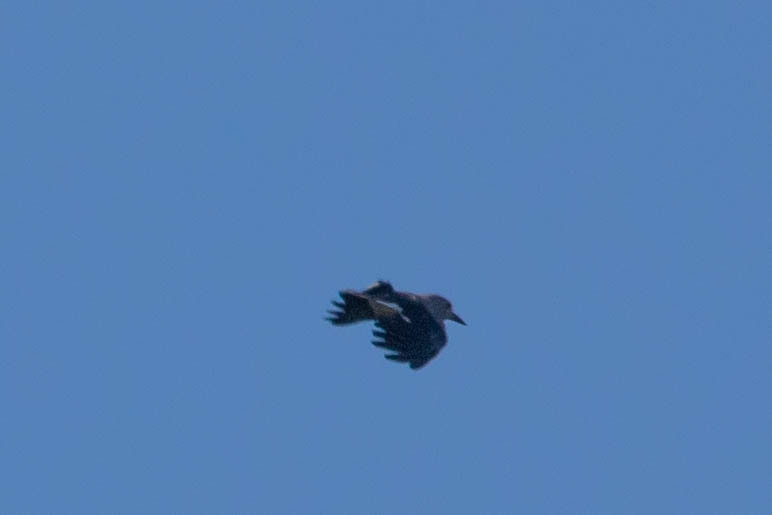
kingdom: Animalia
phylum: Chordata
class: Aves
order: Passeriformes
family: Corvidae
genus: Nucifraga
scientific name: Nucifraga columbiana
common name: Clark's nutcracker
